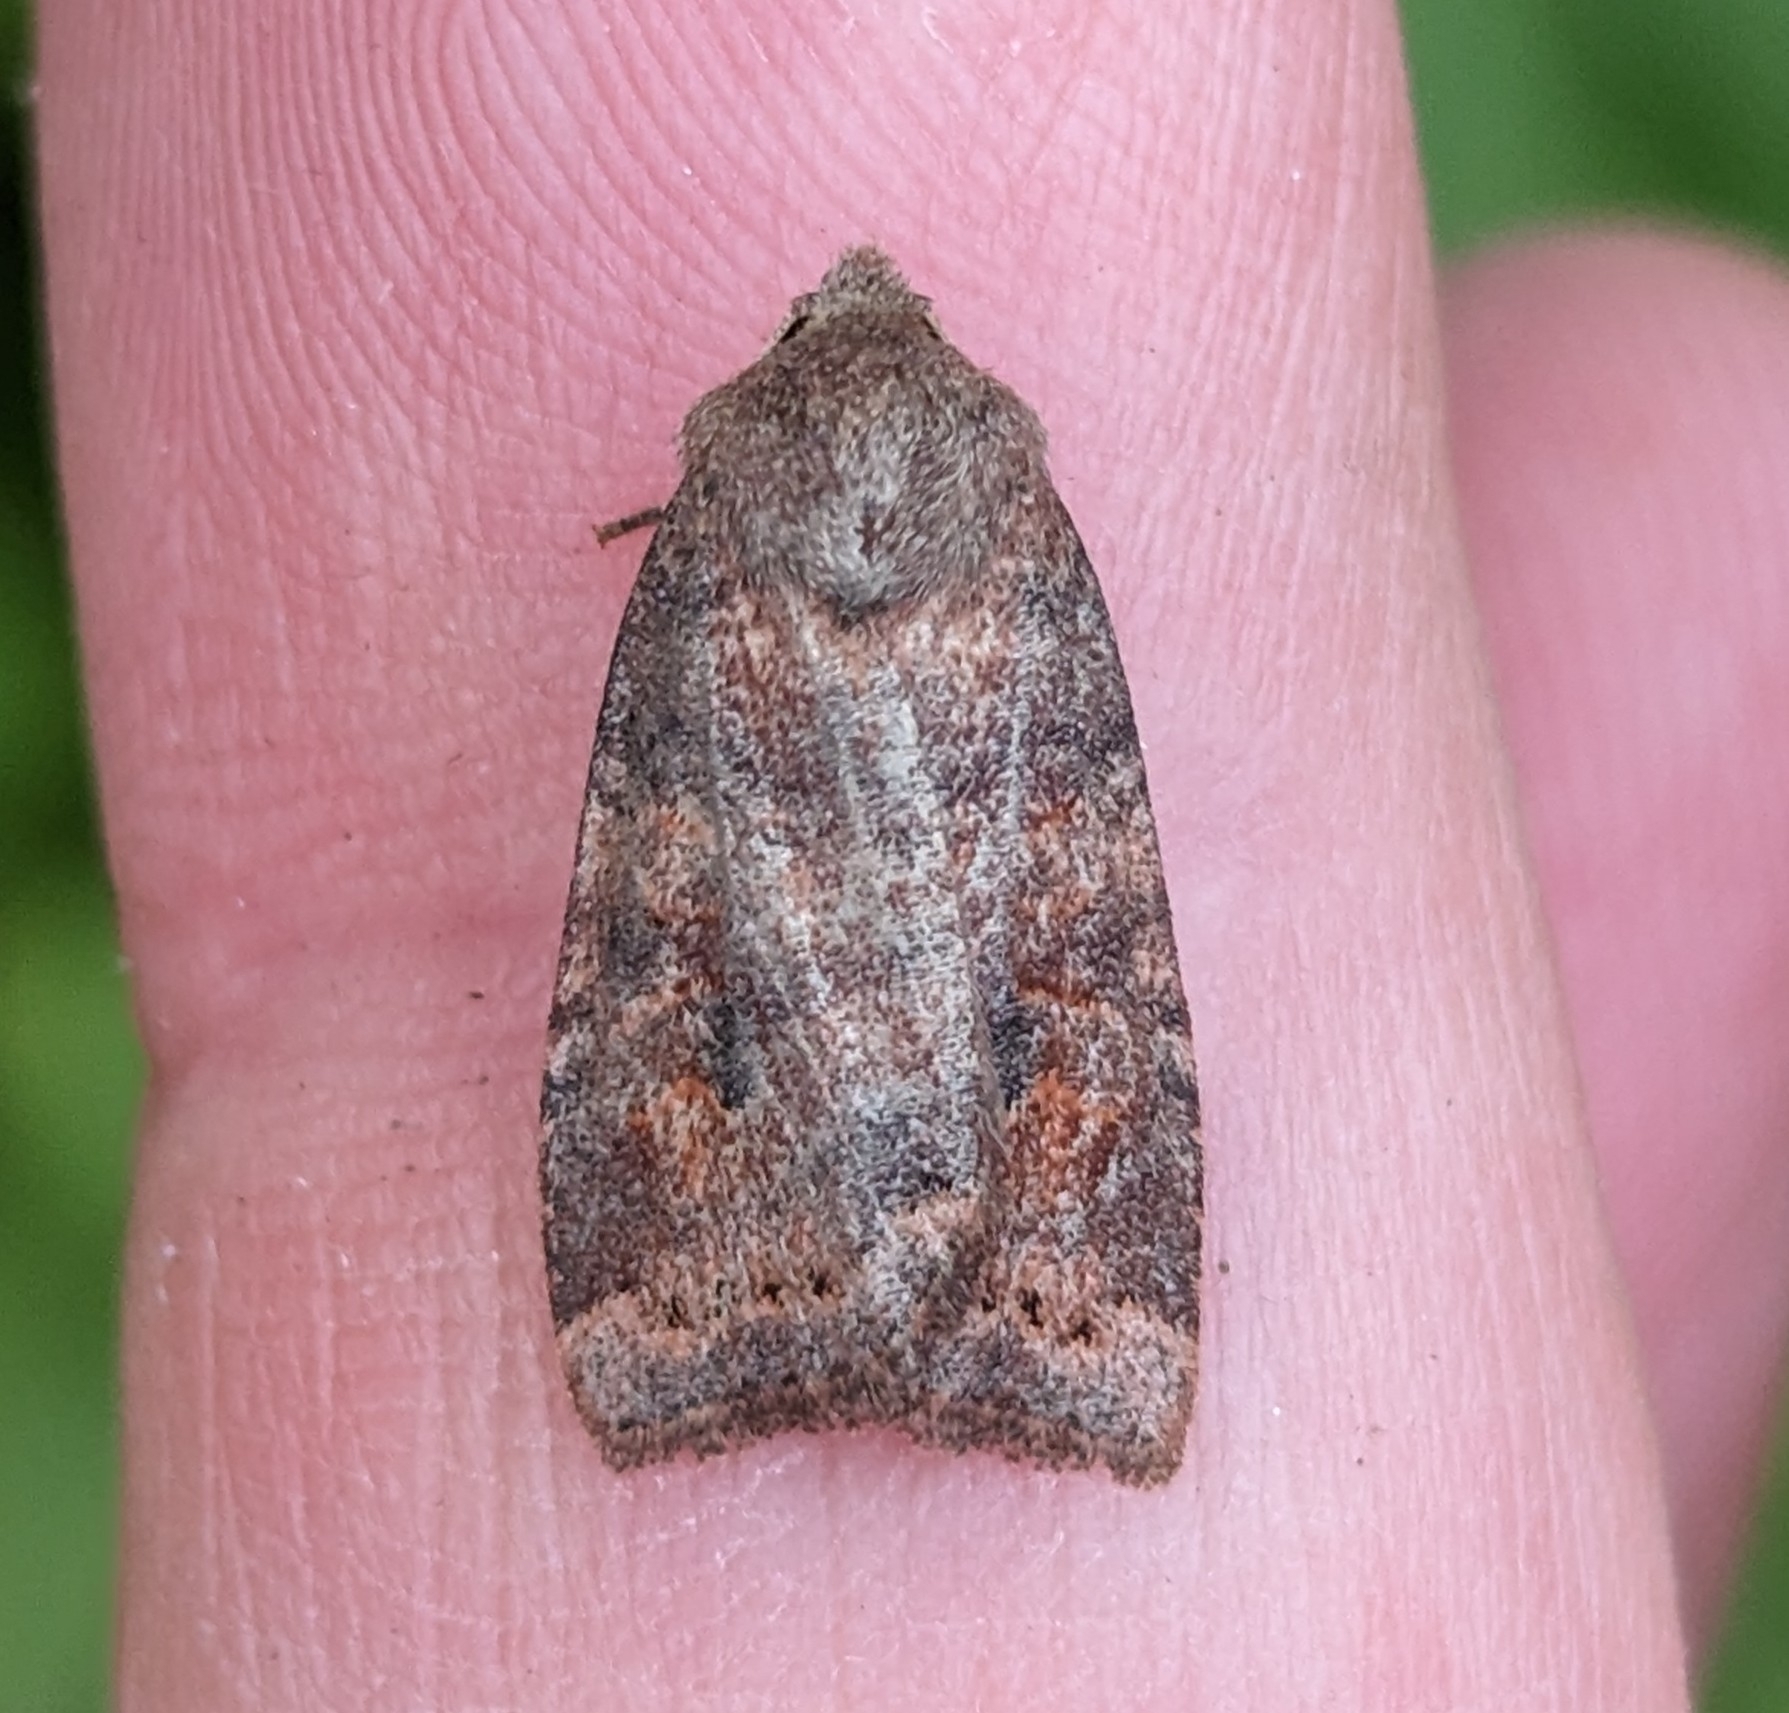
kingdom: Animalia
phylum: Arthropoda
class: Insecta
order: Lepidoptera
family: Noctuidae
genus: Anathix
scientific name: Anathix puta
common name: Puta sallow
